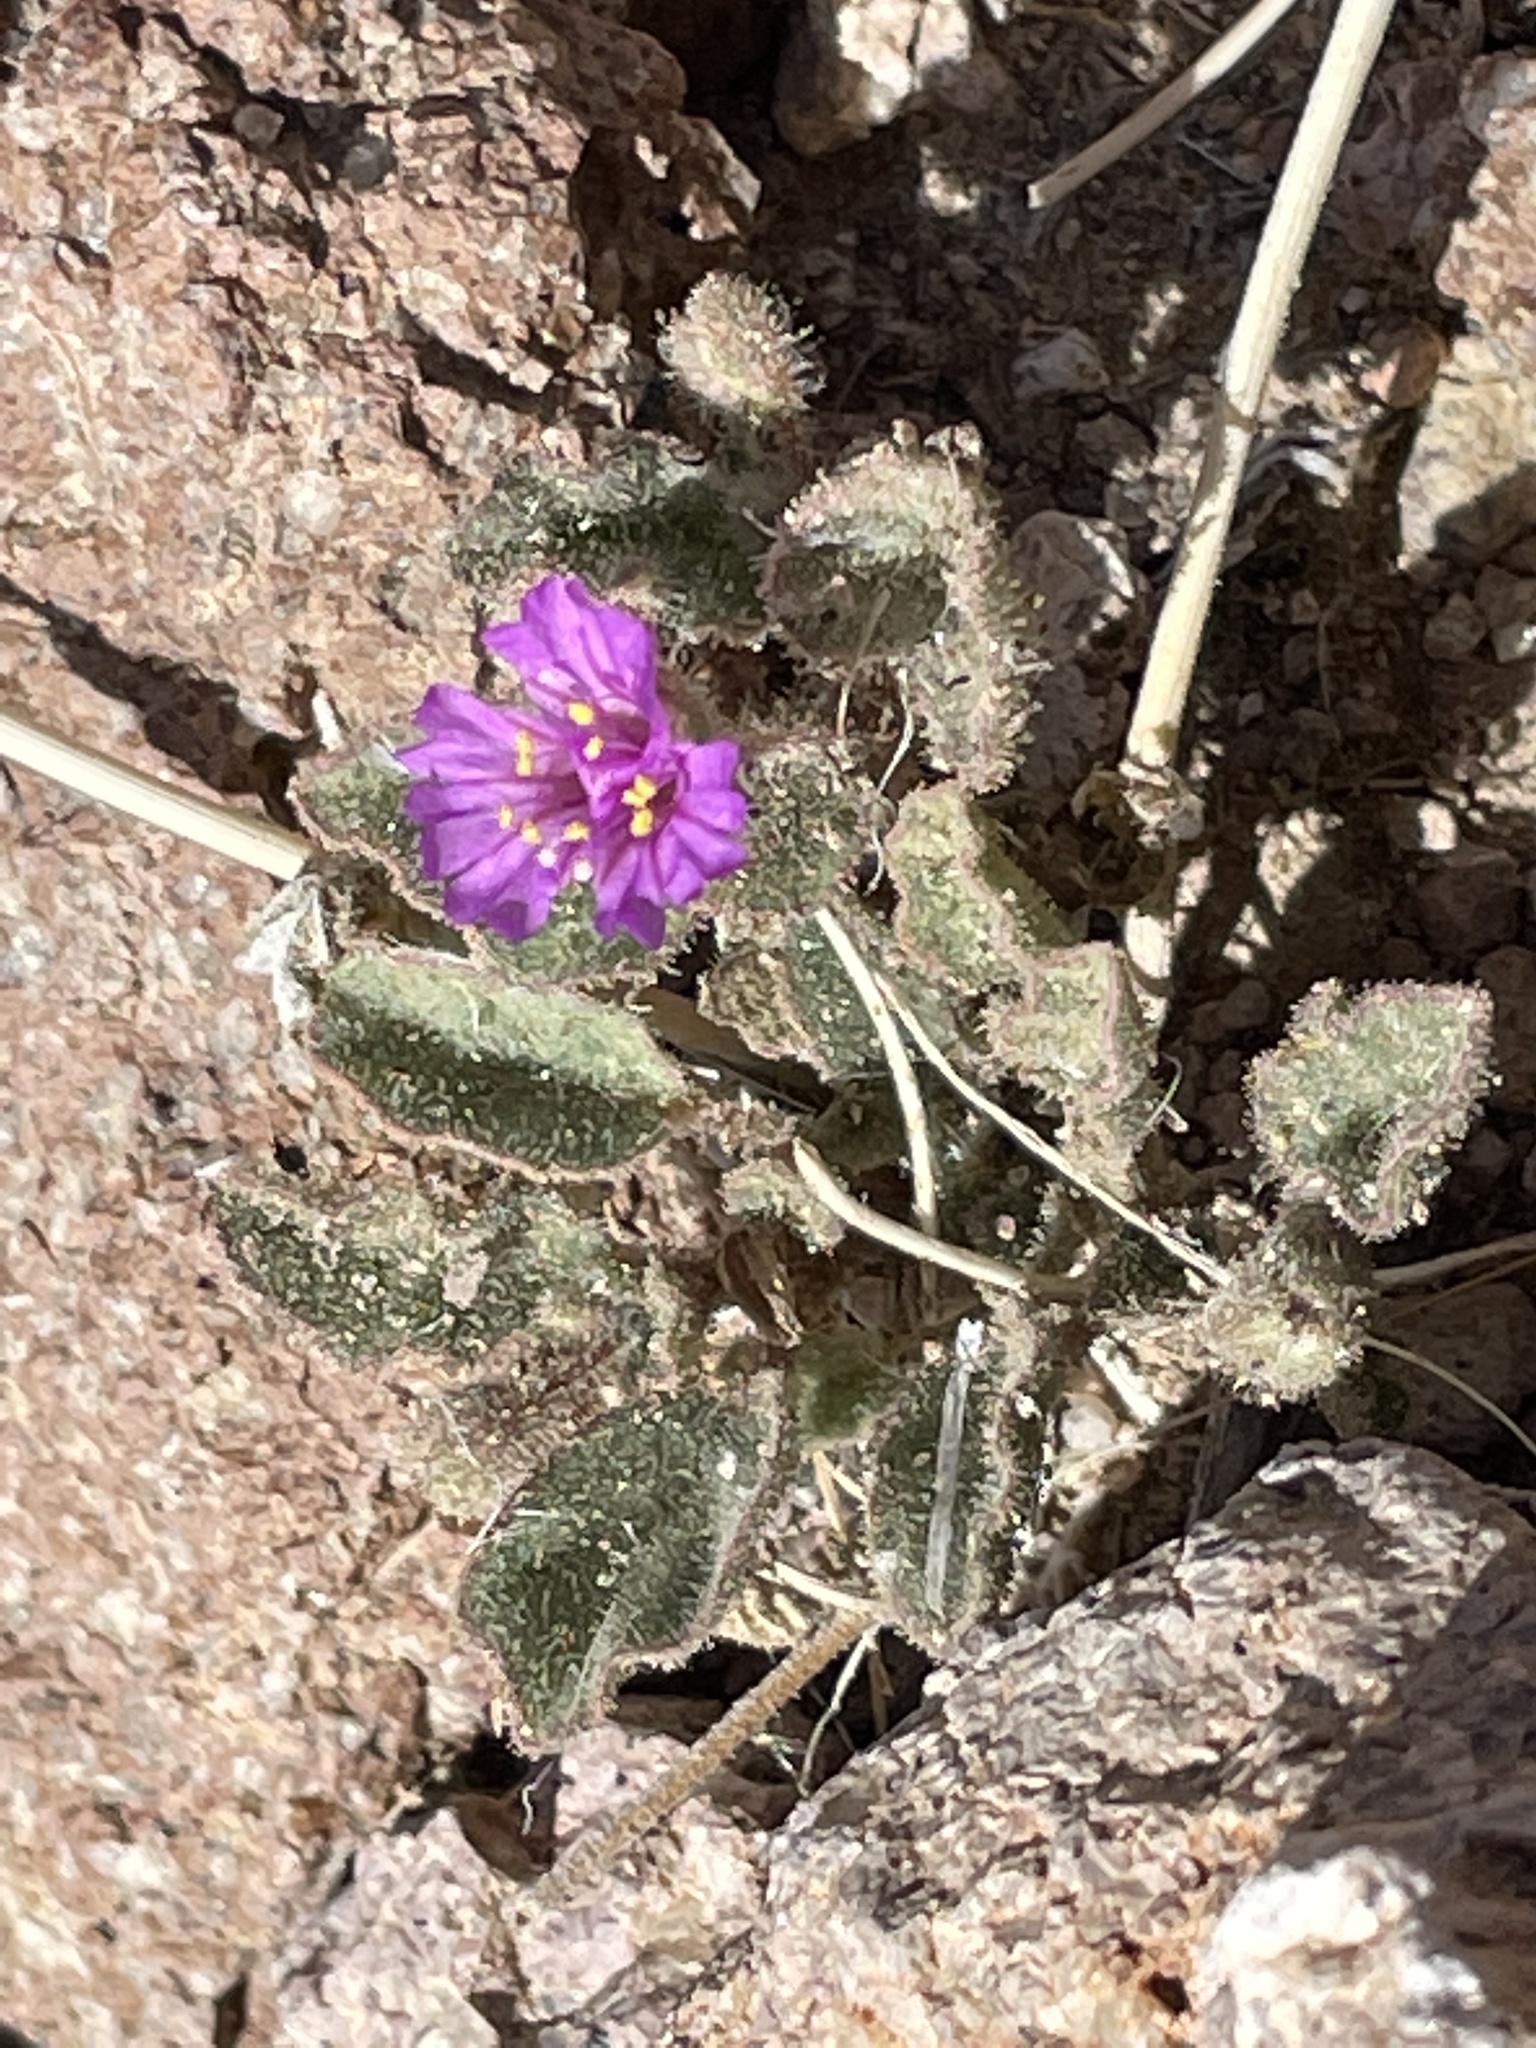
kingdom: Plantae
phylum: Tracheophyta
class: Magnoliopsida
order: Caryophyllales
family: Nyctaginaceae
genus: Allionia
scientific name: Allionia incarnata
